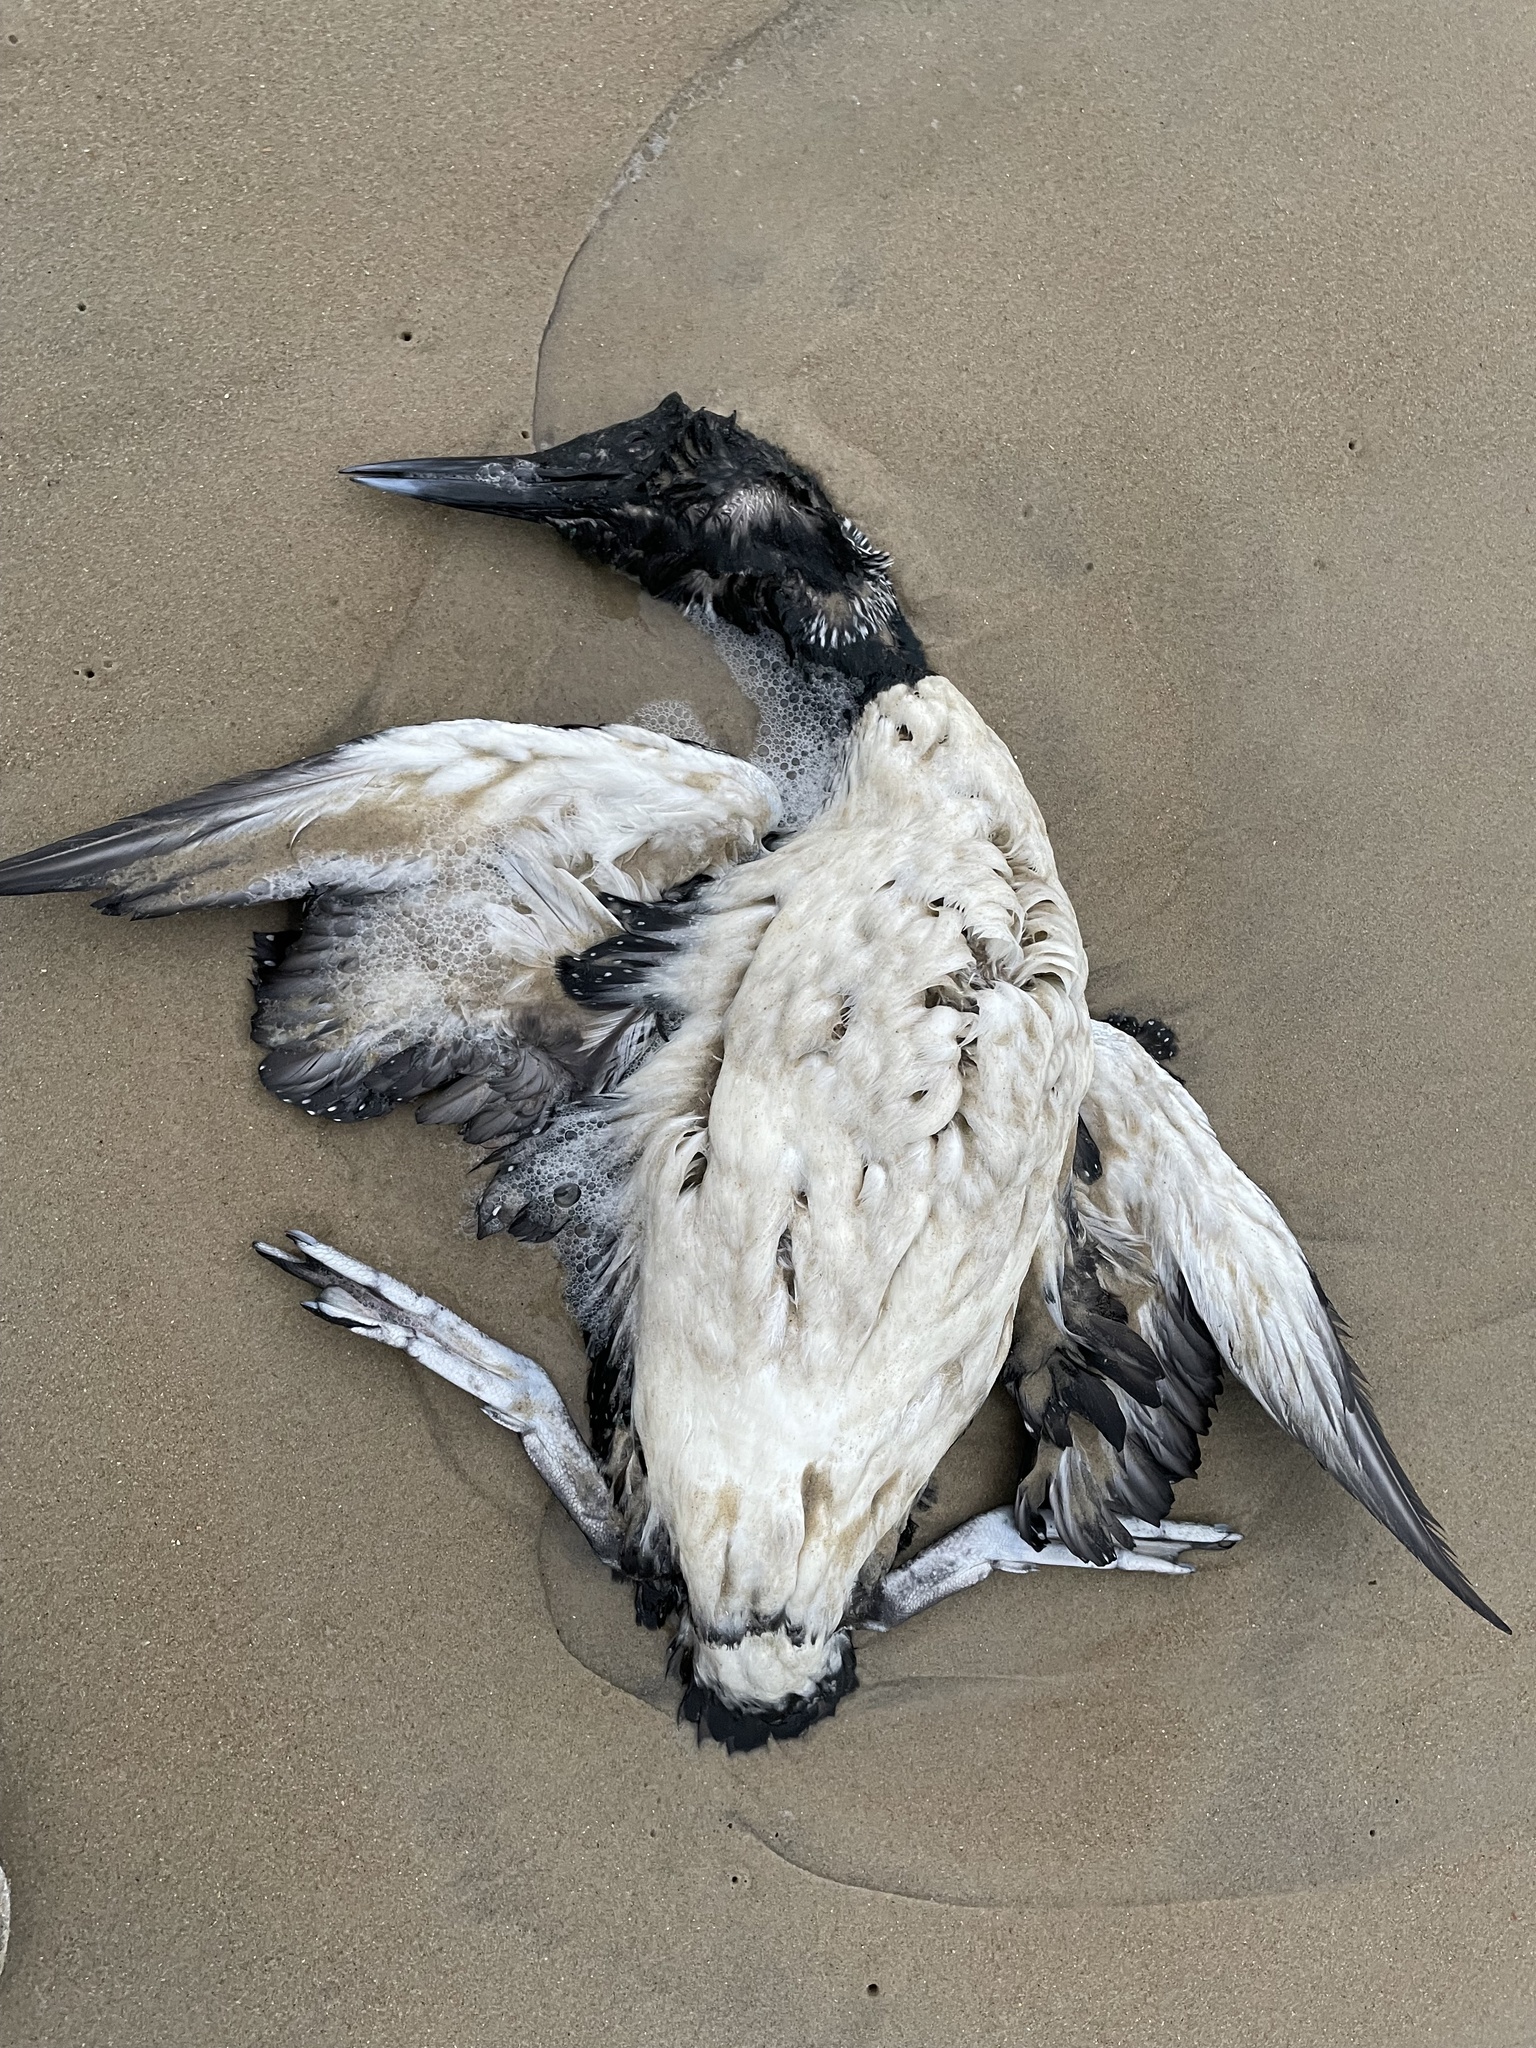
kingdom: Animalia
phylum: Chordata
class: Aves
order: Gaviiformes
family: Gaviidae
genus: Gavia
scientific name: Gavia immer
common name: Common loon
